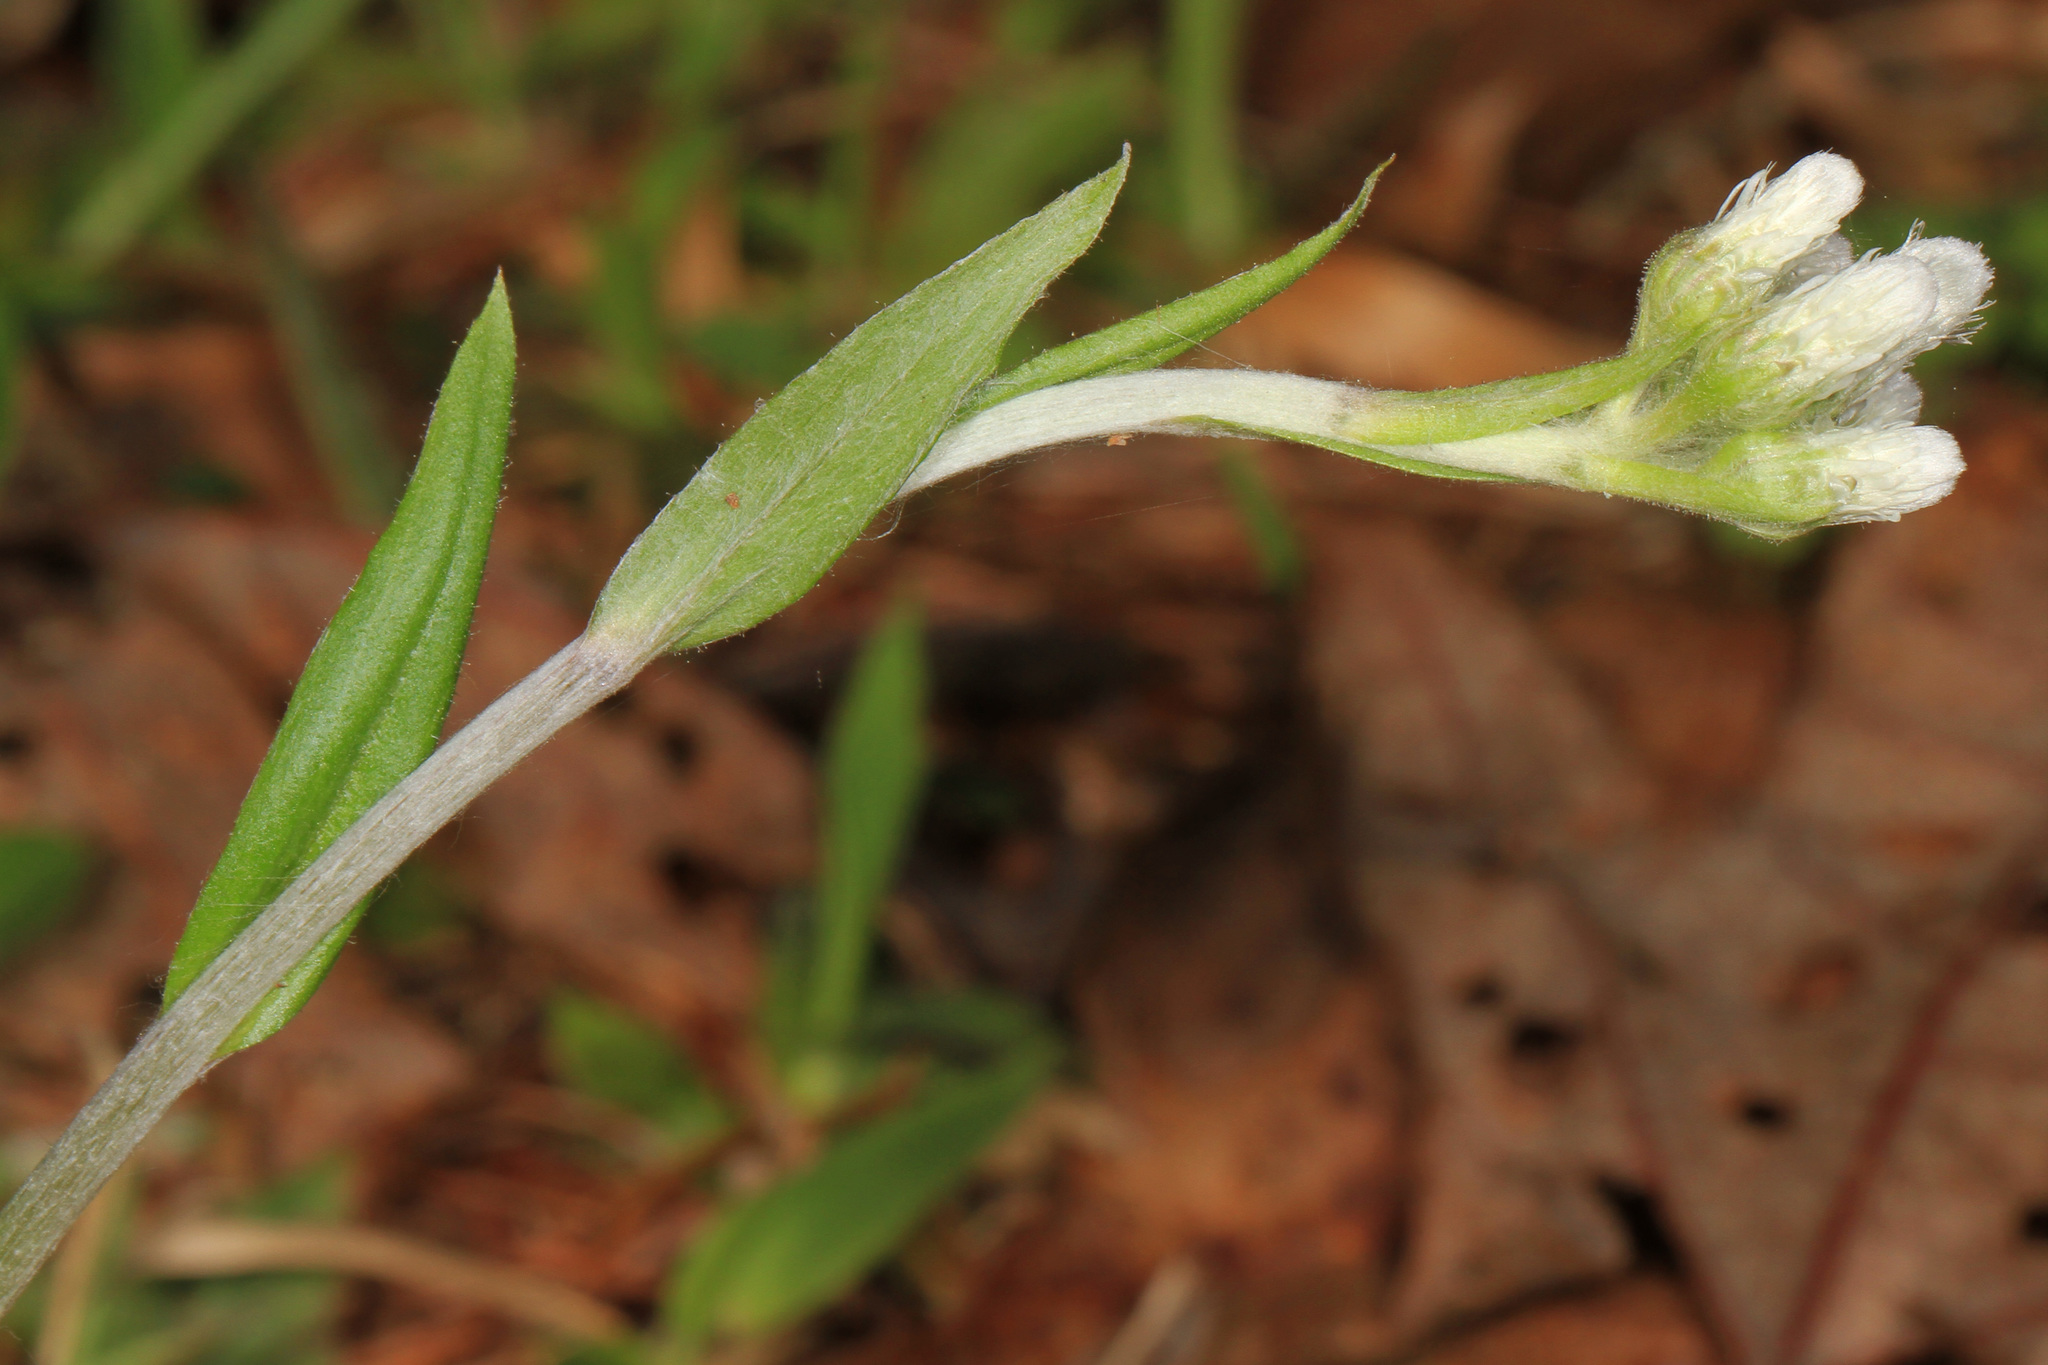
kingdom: Plantae
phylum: Tracheophyta
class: Magnoliopsida
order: Asterales
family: Asteraceae
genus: Antennaria
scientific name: Antennaria plantaginifolia
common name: Plantain-leaved pussytoes
